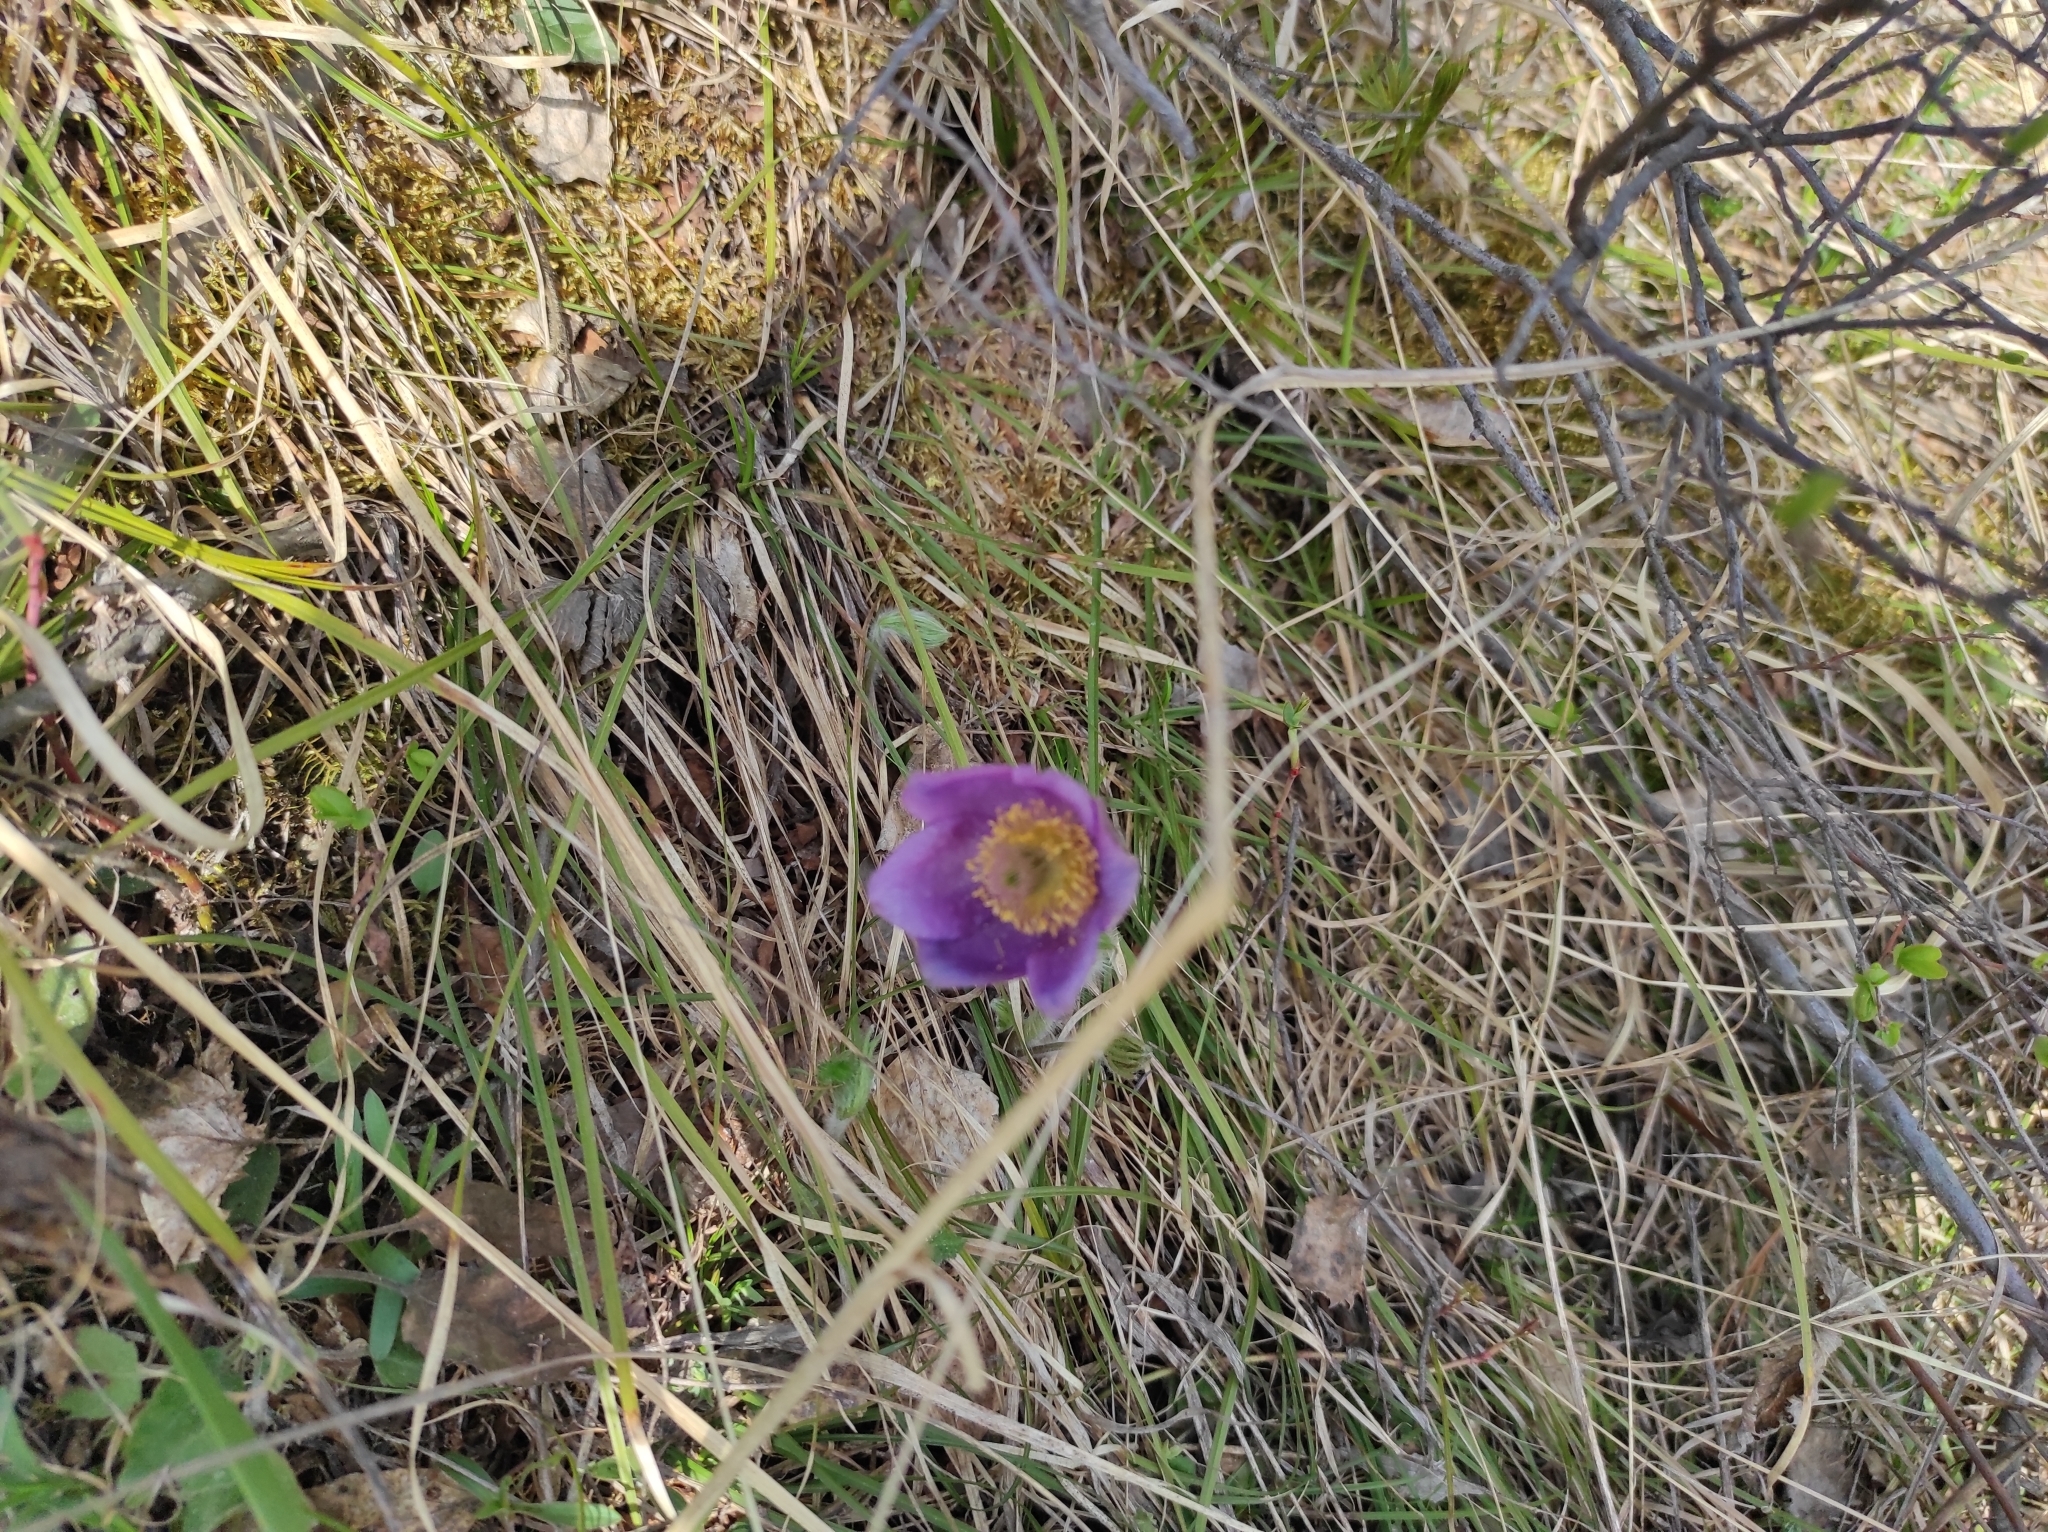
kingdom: Plantae
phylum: Tracheophyta
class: Magnoliopsida
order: Ranunculales
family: Ranunculaceae
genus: Pulsatilla
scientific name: Pulsatilla patens
